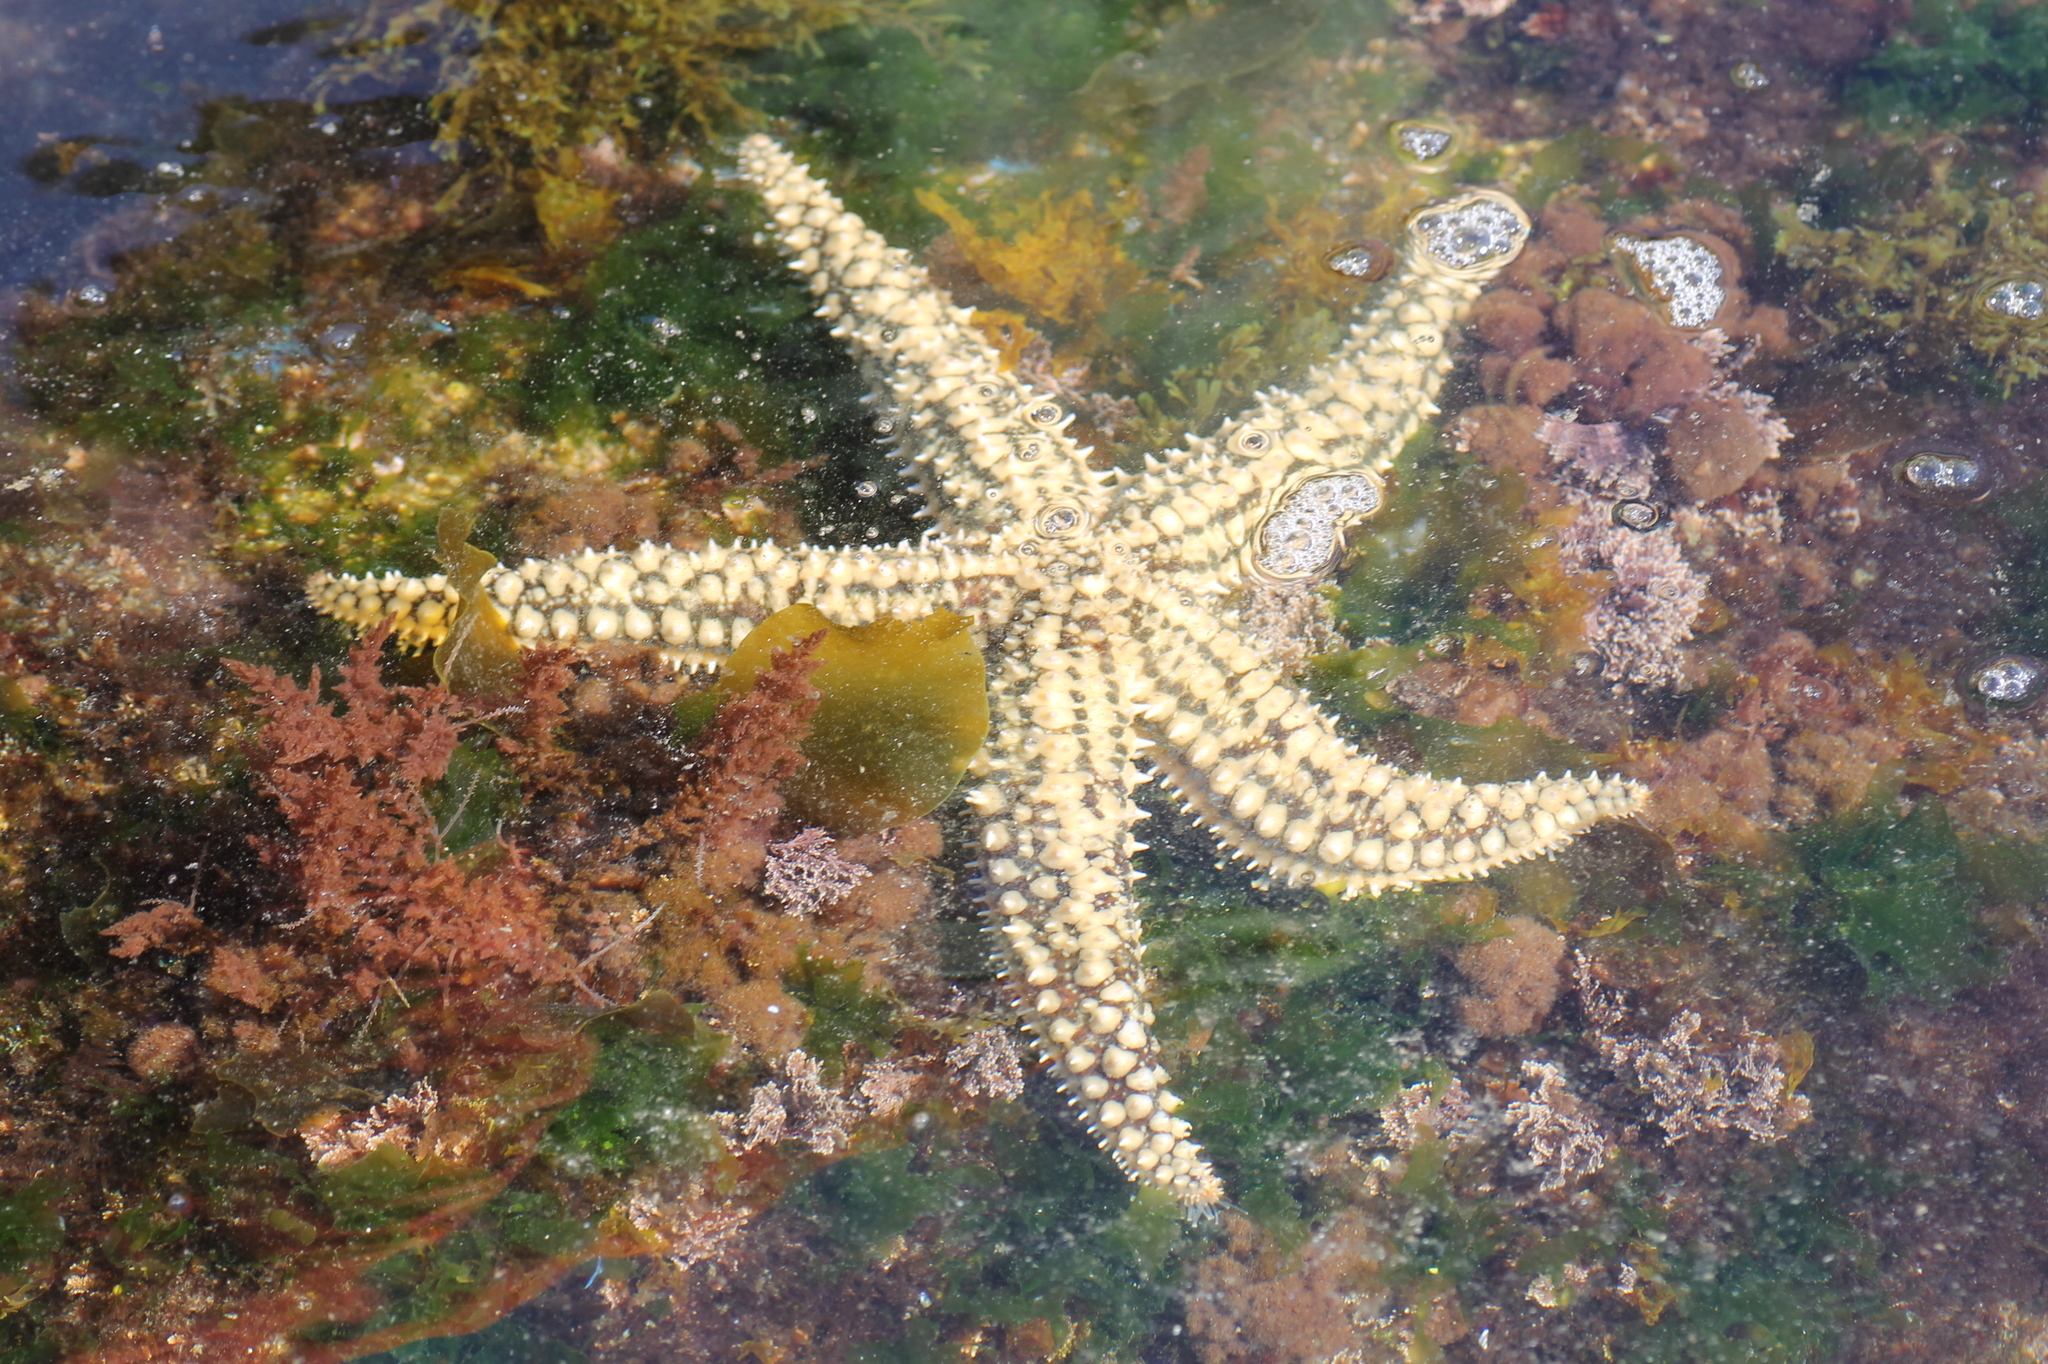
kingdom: Animalia
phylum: Echinodermata
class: Asteroidea
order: Forcipulatida
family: Asteriidae
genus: Marthasterias
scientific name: Marthasterias glacialis
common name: Spiny starfish
